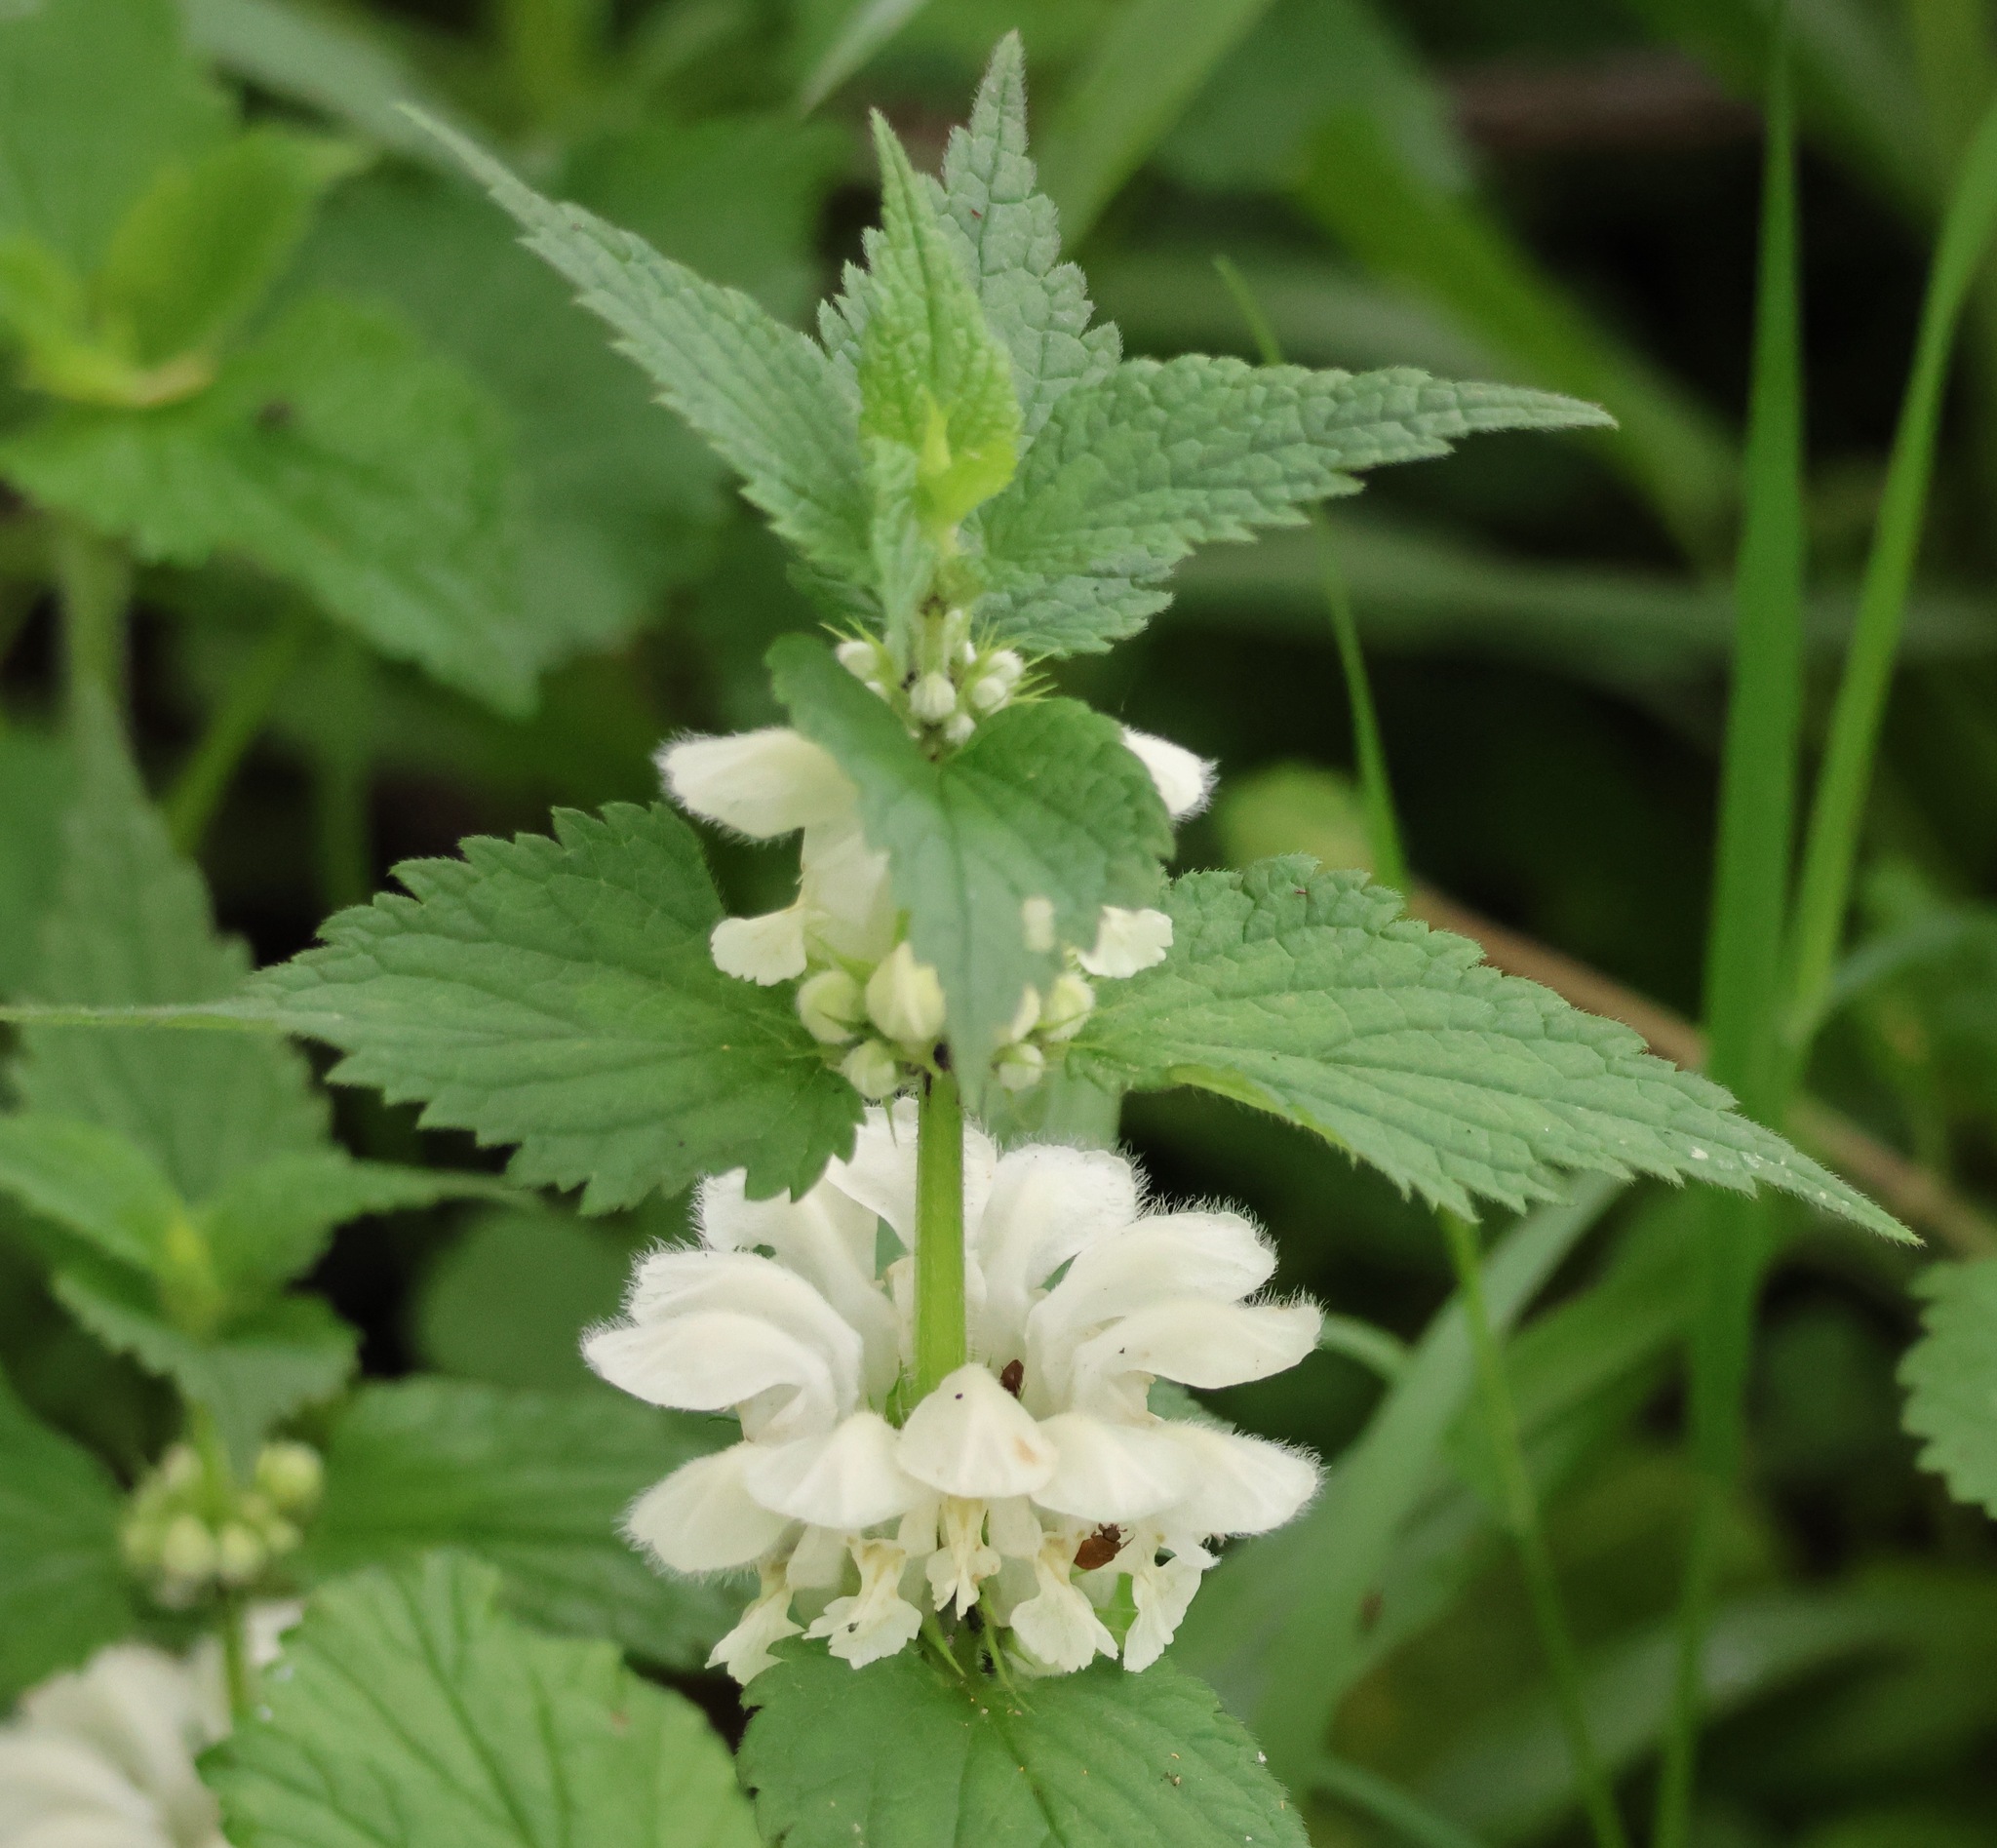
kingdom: Plantae
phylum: Tracheophyta
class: Magnoliopsida
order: Lamiales
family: Lamiaceae
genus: Lamium
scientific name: Lamium album
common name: White dead-nettle
